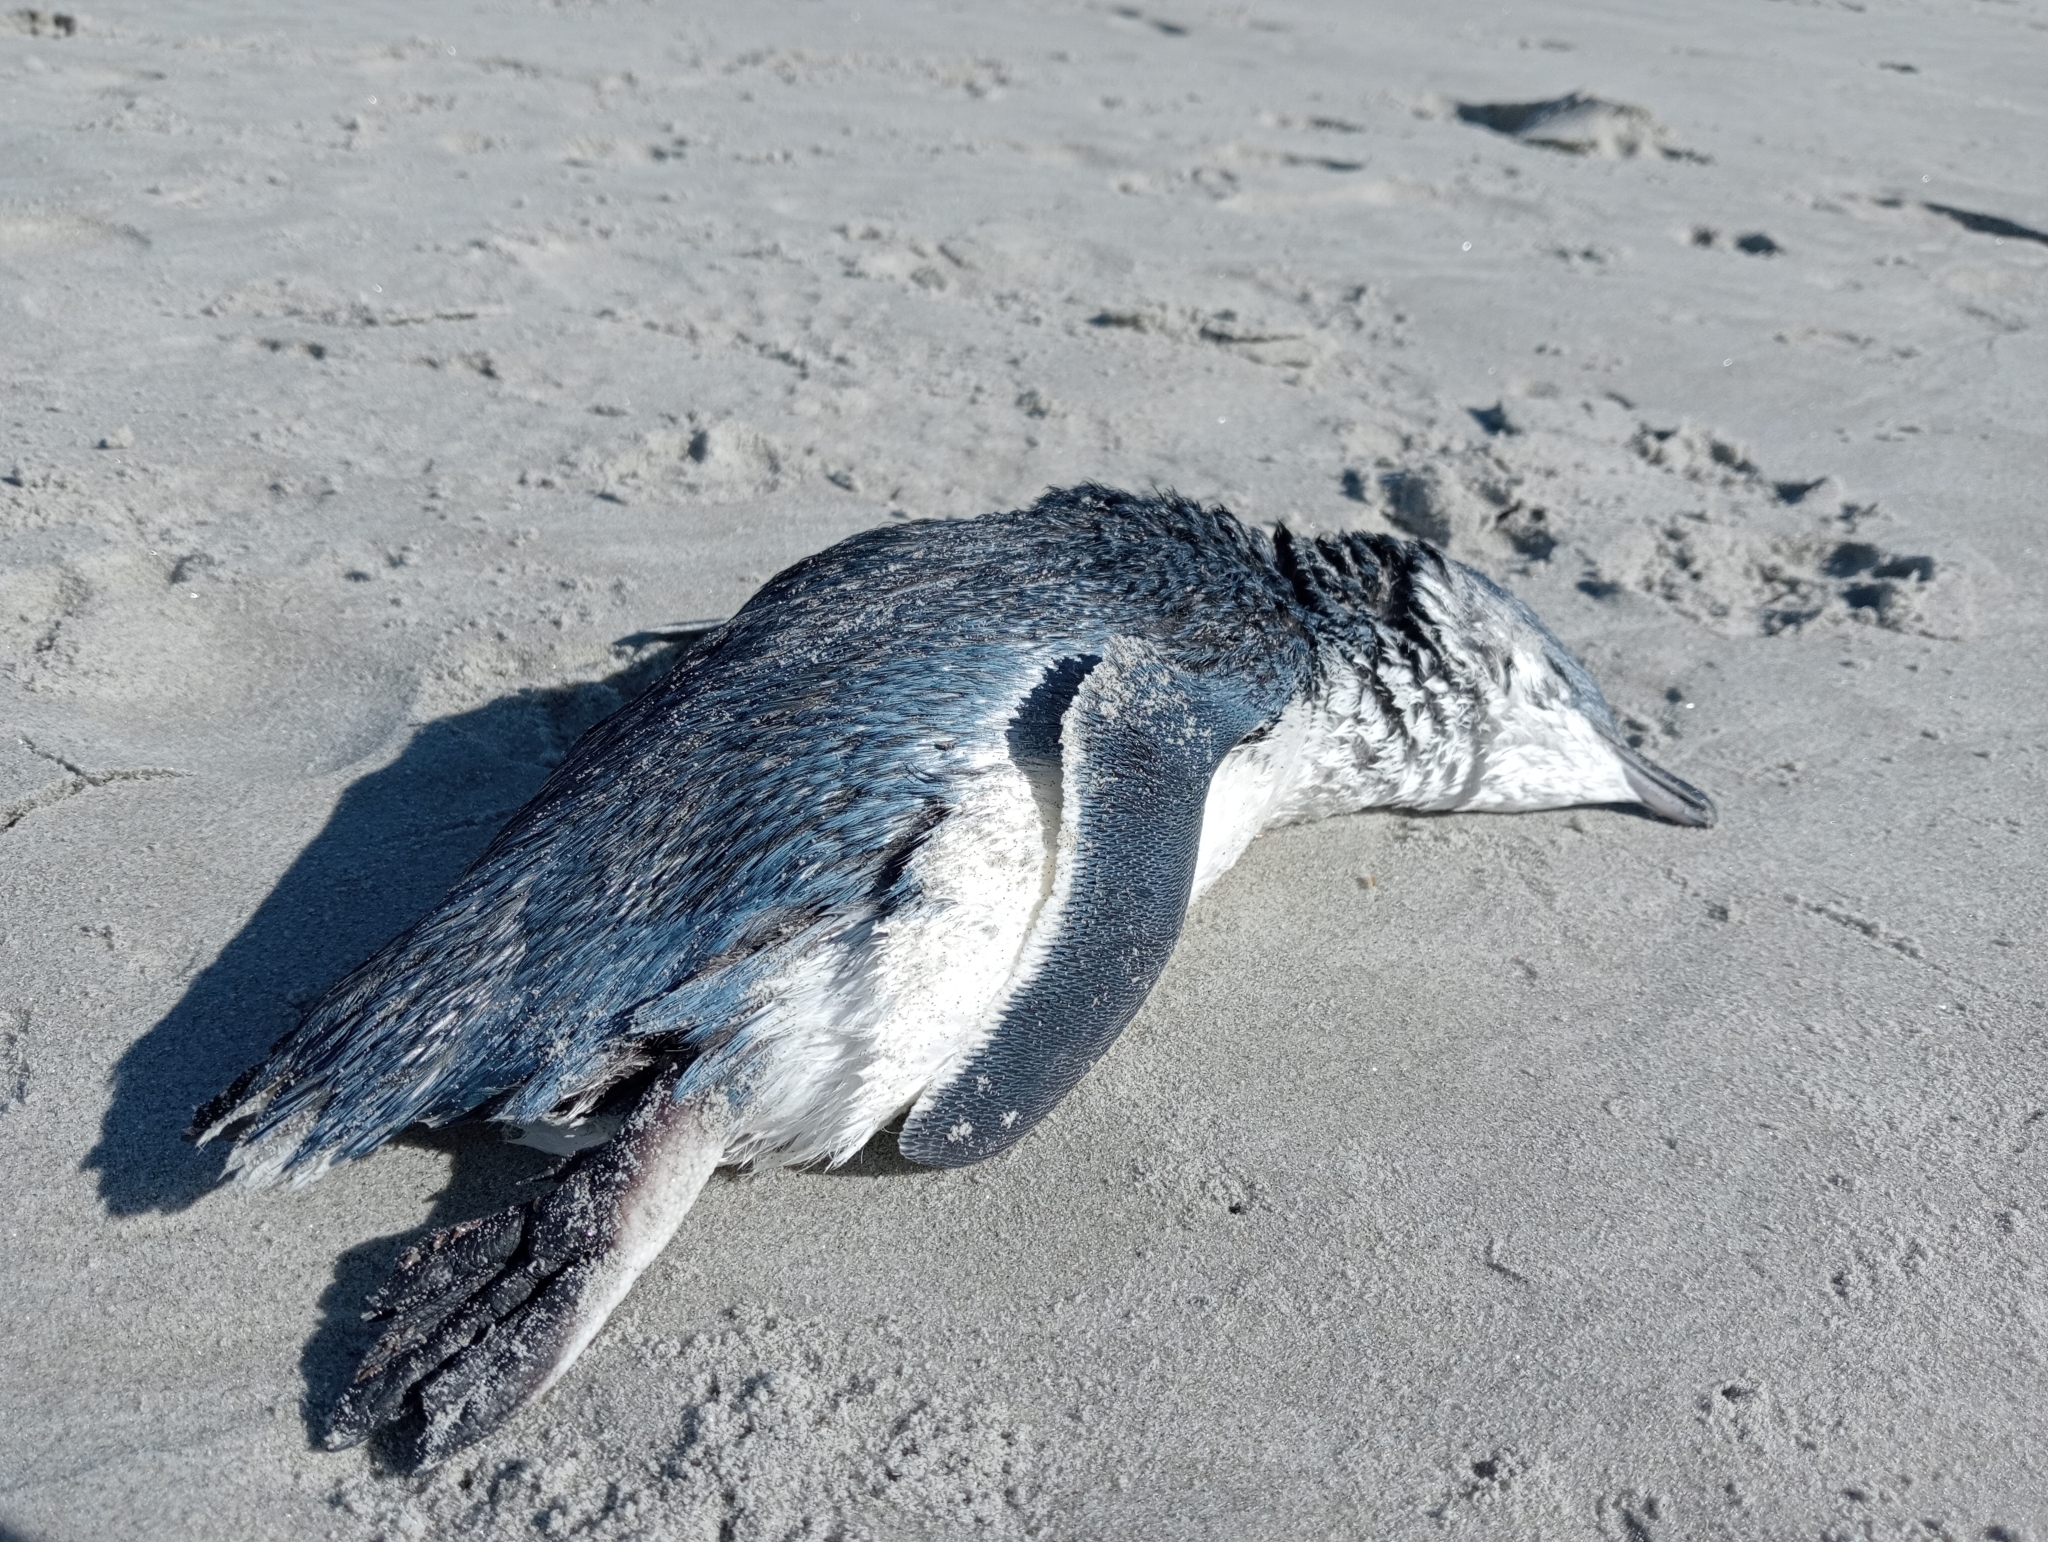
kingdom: Animalia
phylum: Chordata
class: Aves
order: Sphenisciformes
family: Spheniscidae
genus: Eudyptula
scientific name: Eudyptula minor
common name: Little penguin
